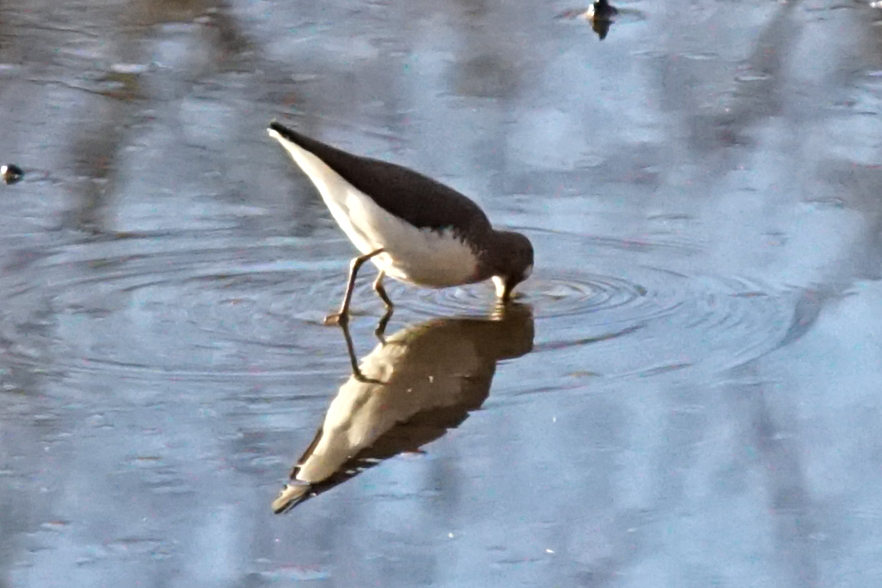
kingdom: Animalia
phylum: Chordata
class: Aves
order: Charadriiformes
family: Scolopacidae
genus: Tringa
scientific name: Tringa ochropus
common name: Green sandpiper
